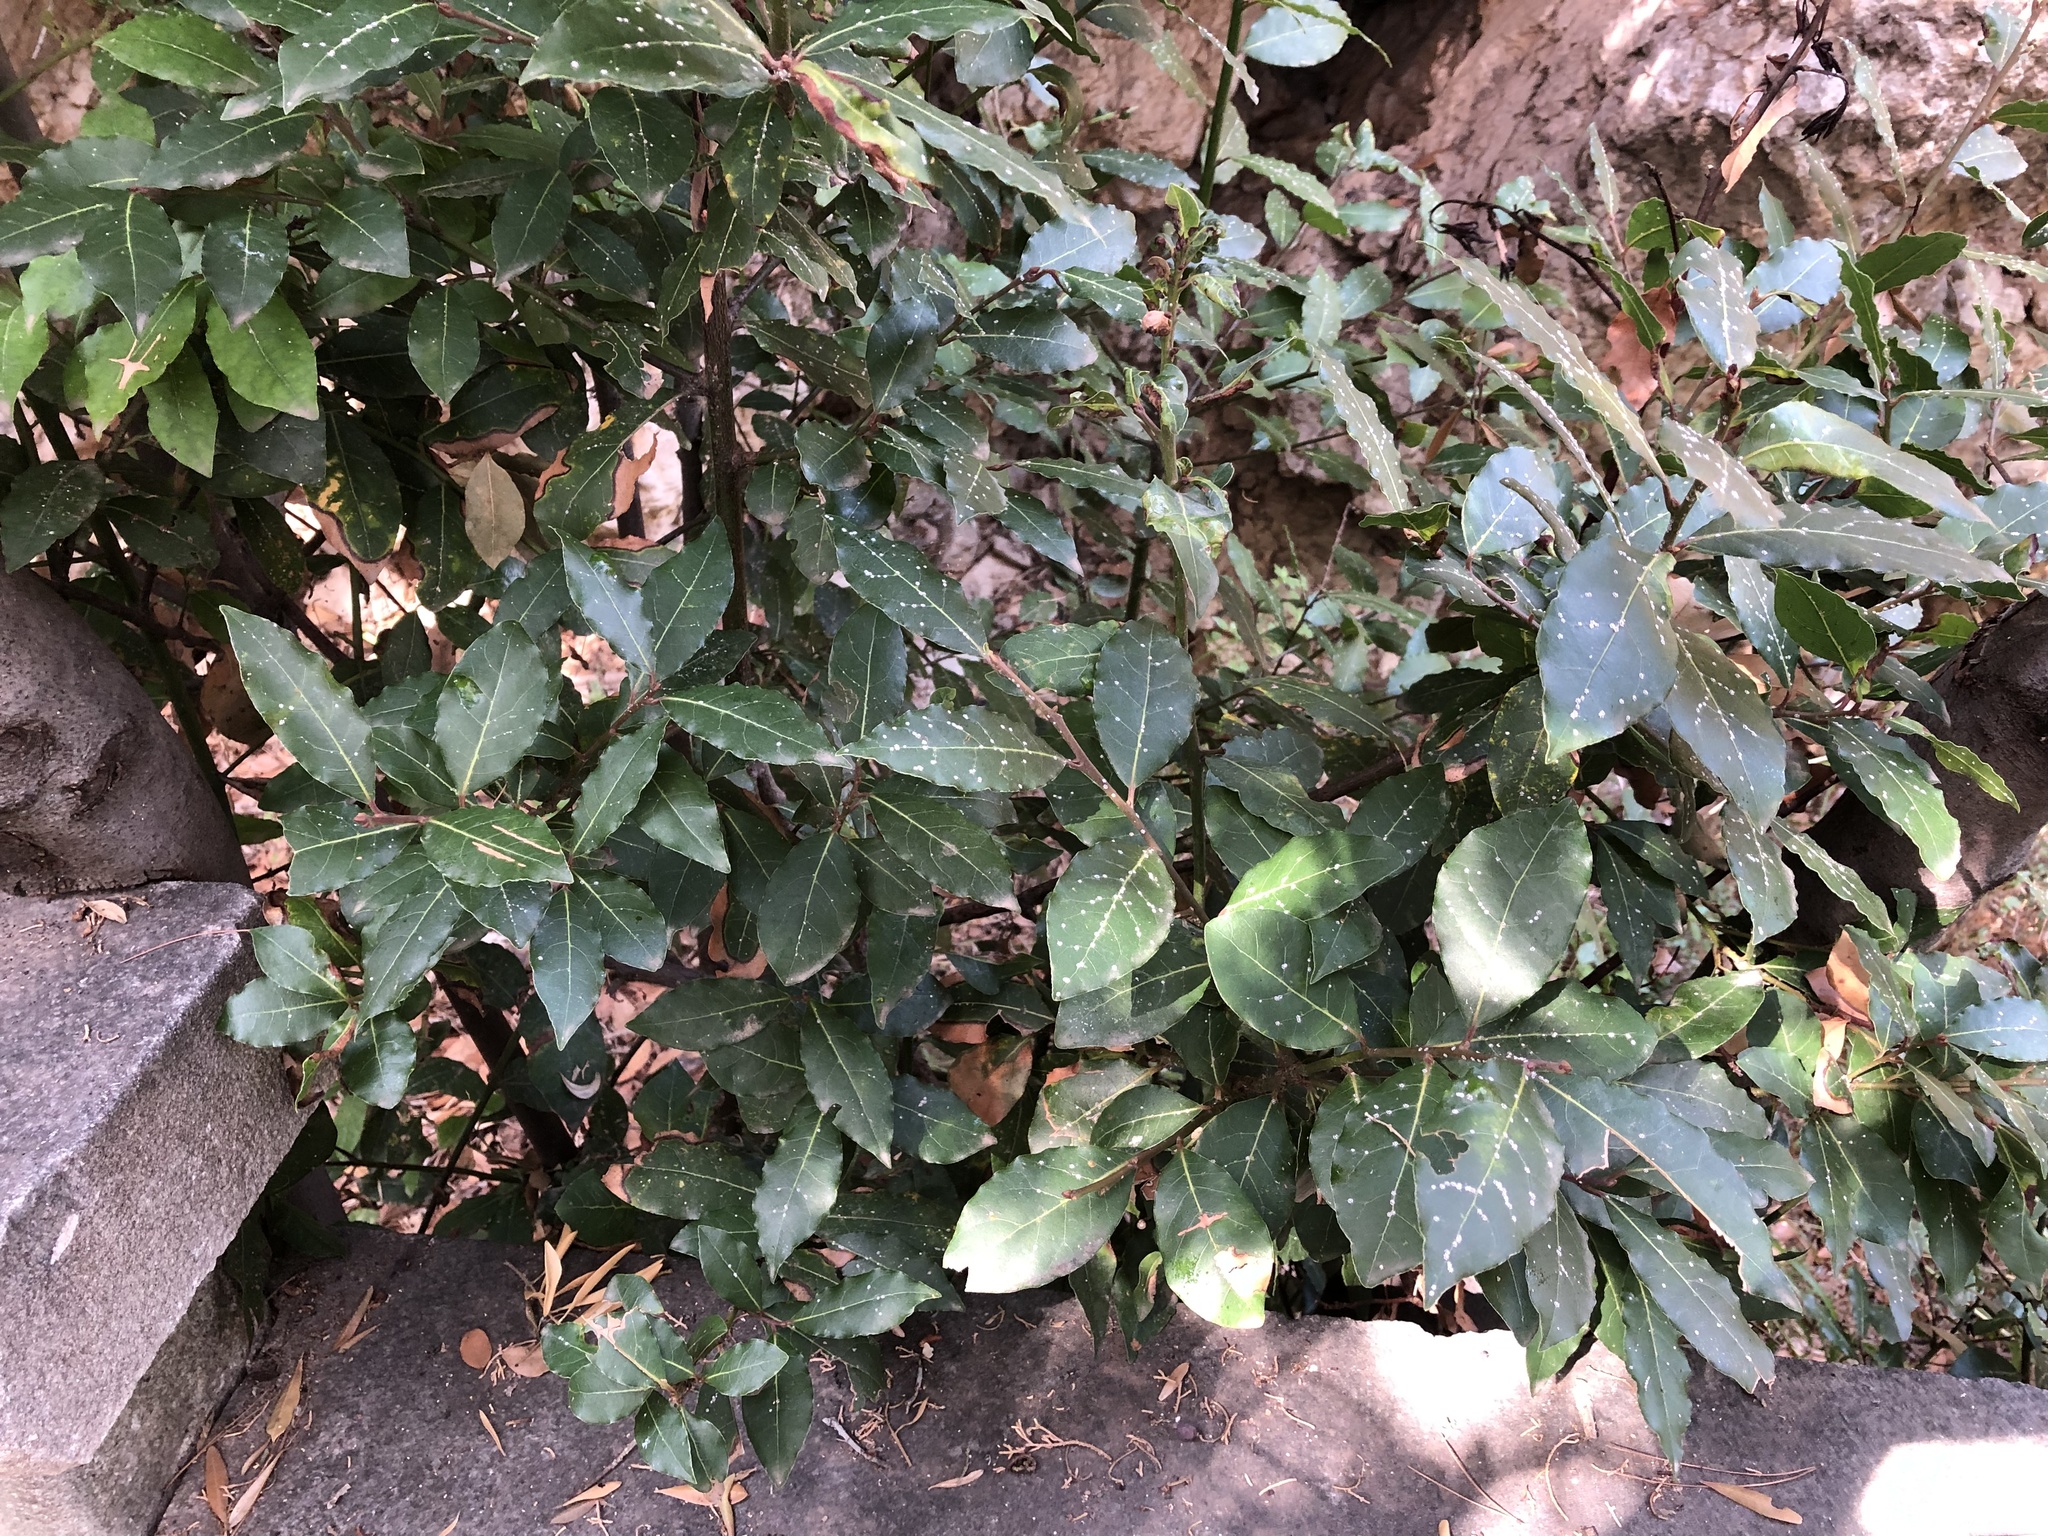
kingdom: Plantae
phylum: Tracheophyta
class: Magnoliopsida
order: Laurales
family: Lauraceae
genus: Laurus
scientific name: Laurus nobilis
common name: Bay
